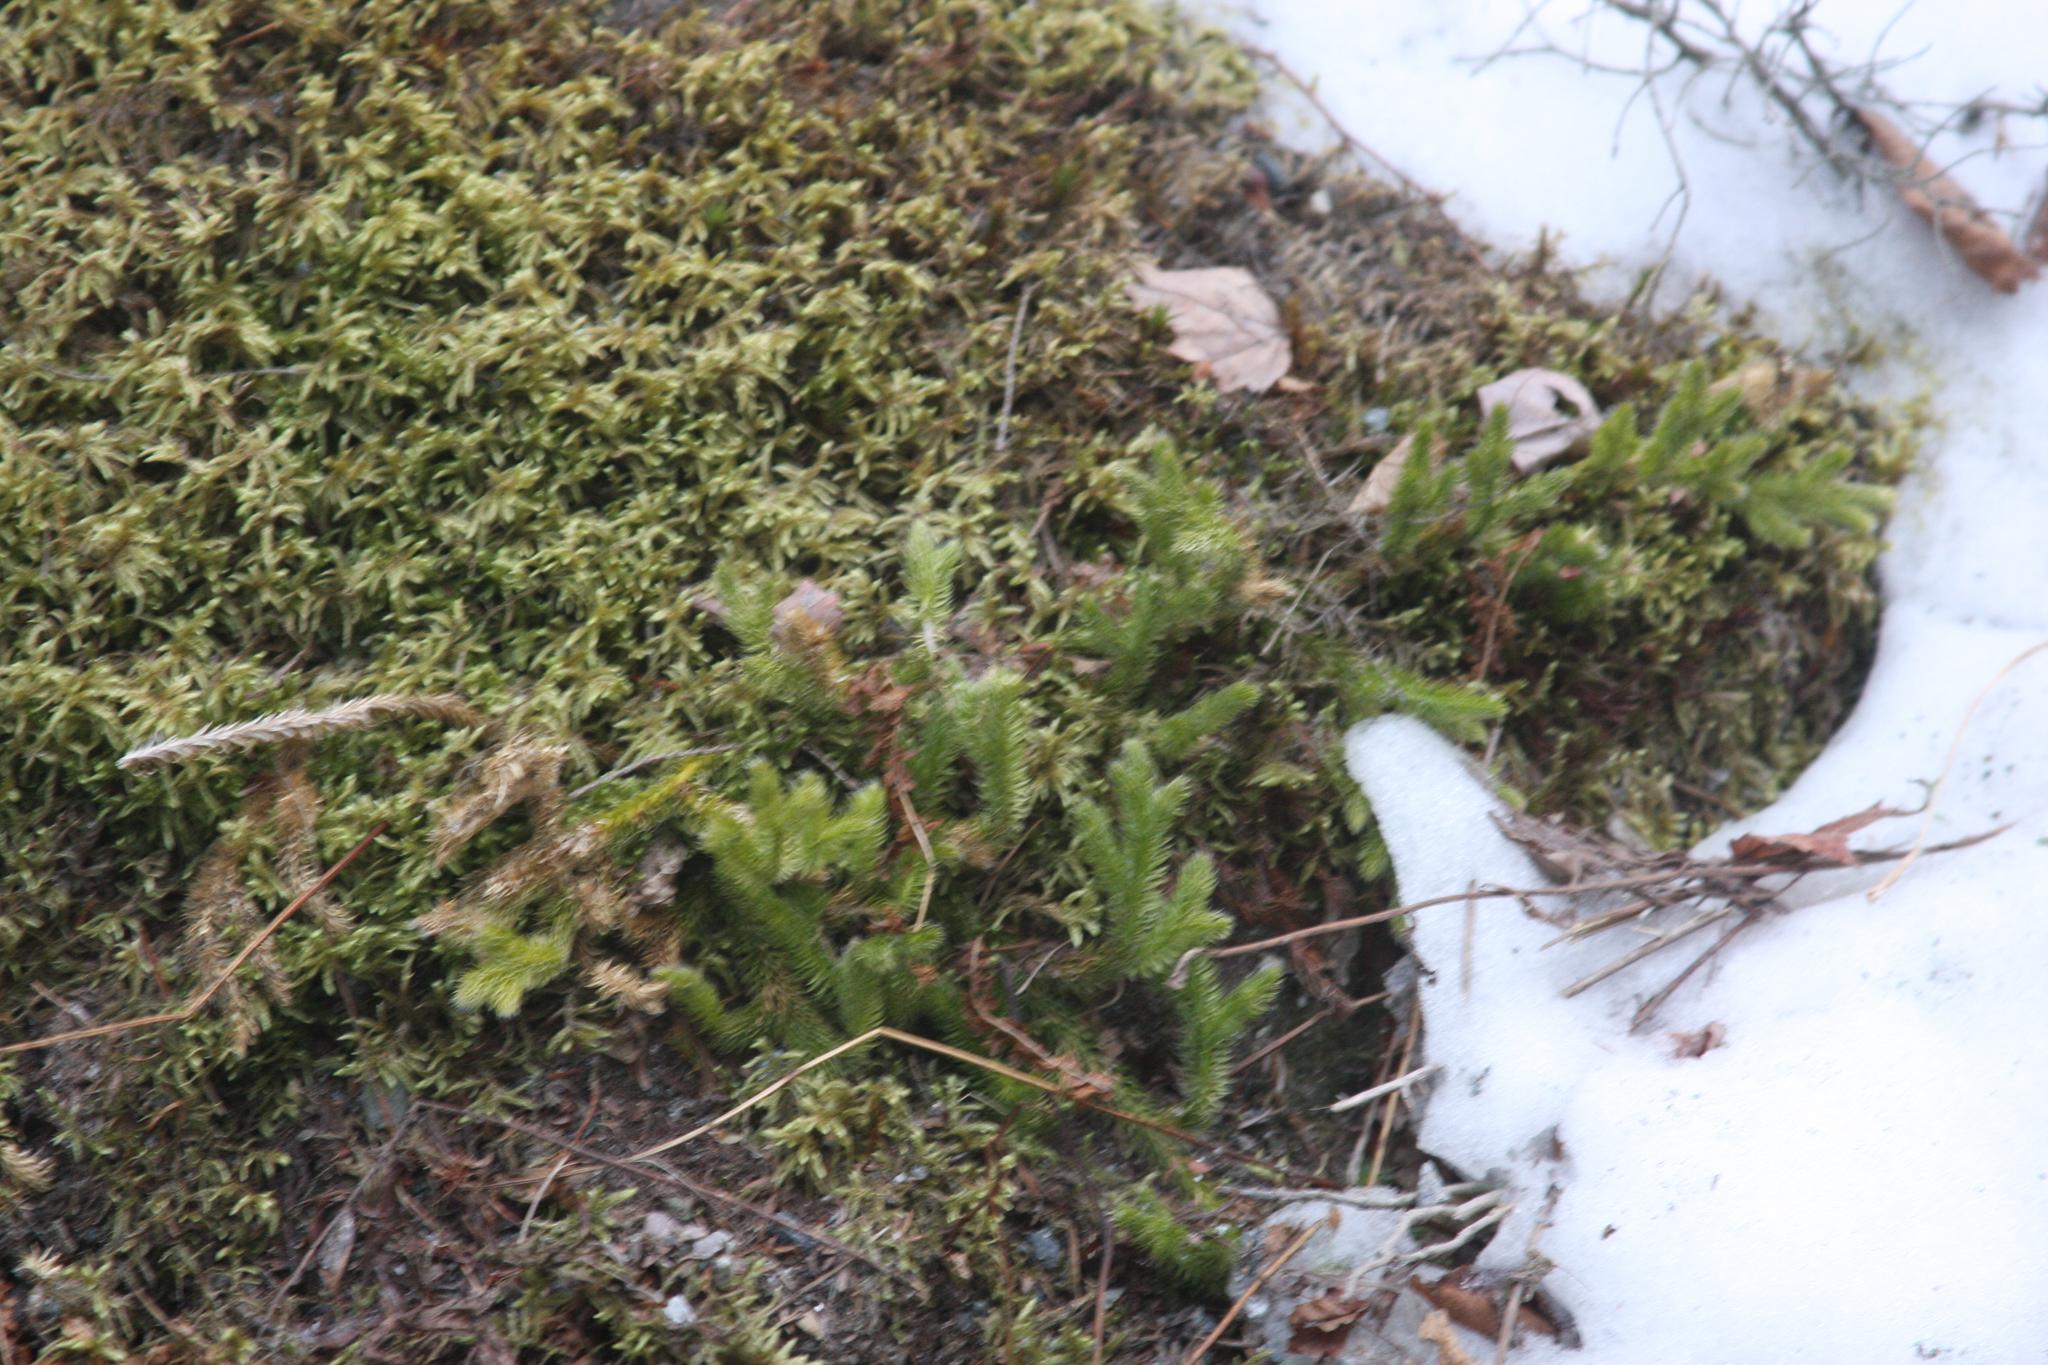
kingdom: Plantae
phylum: Tracheophyta
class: Lycopodiopsida
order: Lycopodiales
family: Lycopodiaceae
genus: Lycopodium
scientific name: Lycopodium clavatum
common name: Stag's-horn clubmoss
